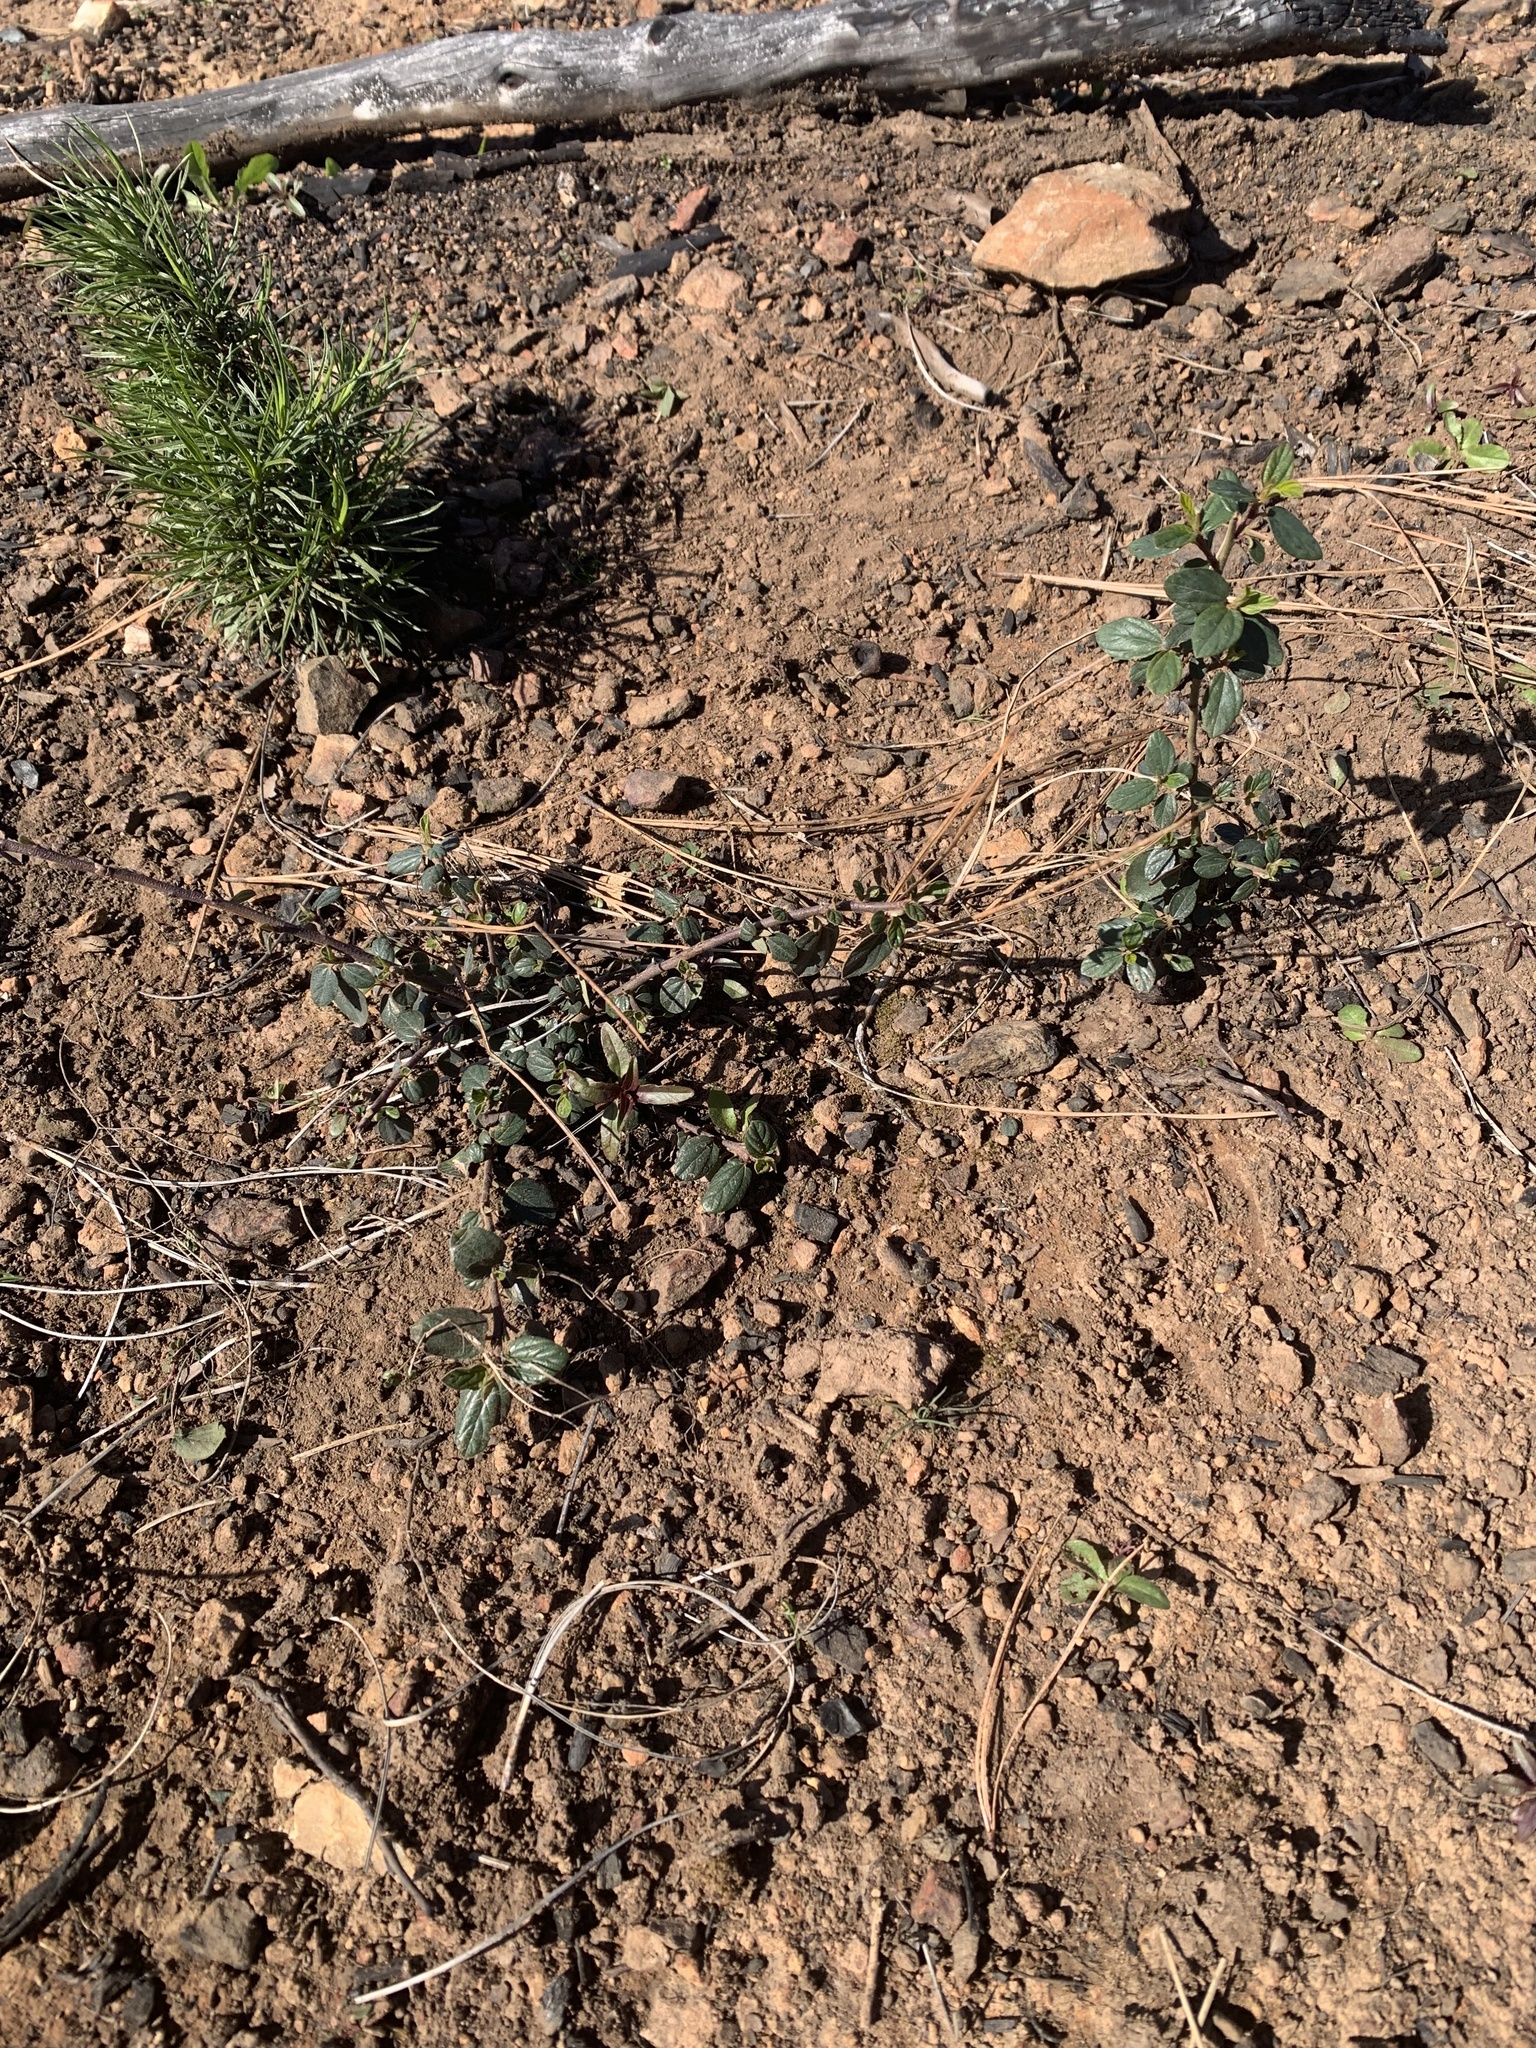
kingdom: Plantae
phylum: Tracheophyta
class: Magnoliopsida
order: Rosales
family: Rhamnaceae
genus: Ceanothus
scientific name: Ceanothus integerrimus
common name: Deerbrush ceanothus
